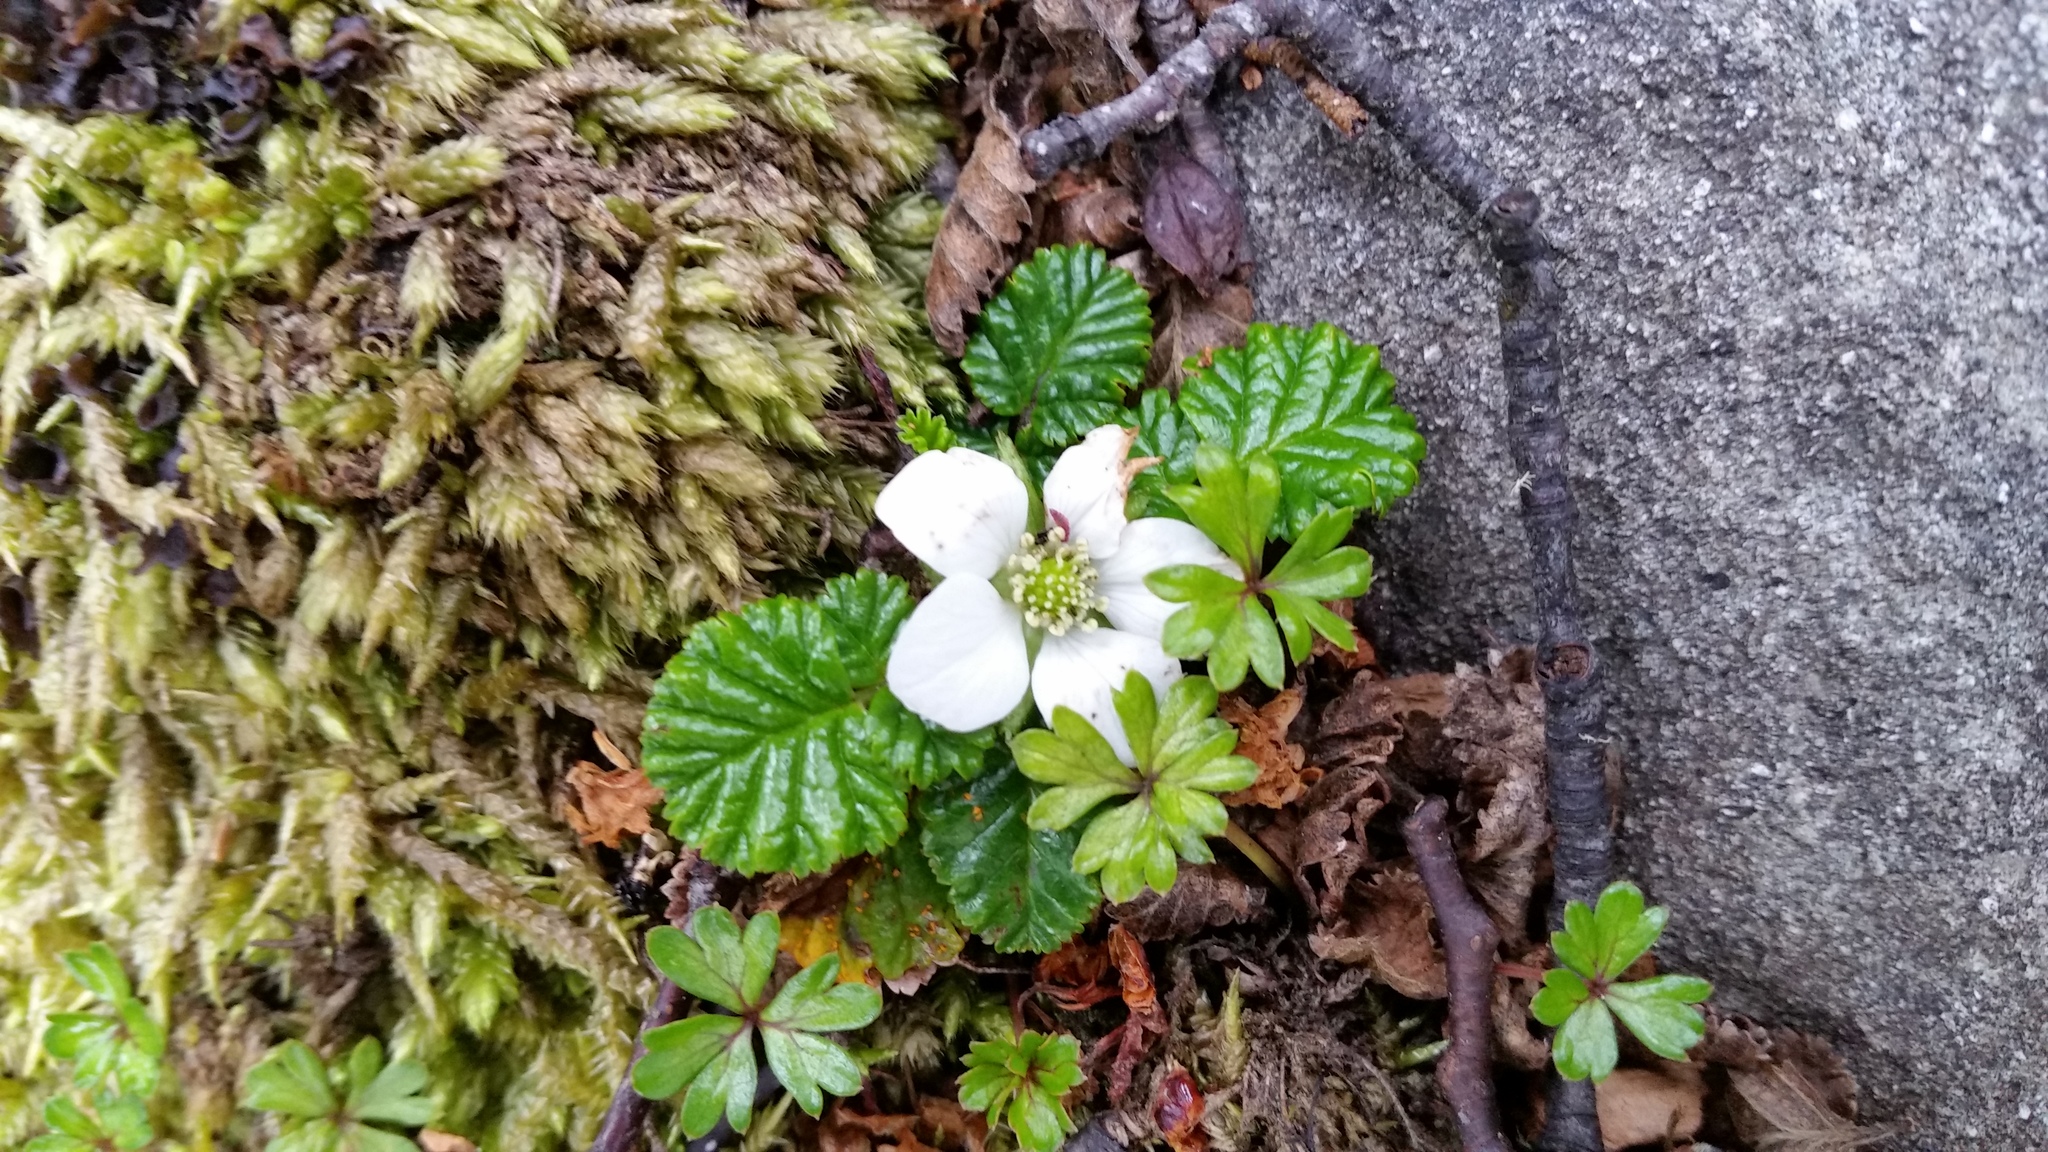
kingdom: Plantae
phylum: Tracheophyta
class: Magnoliopsida
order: Rosales
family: Rosaceae
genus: Rubus
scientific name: Rubus geoides
